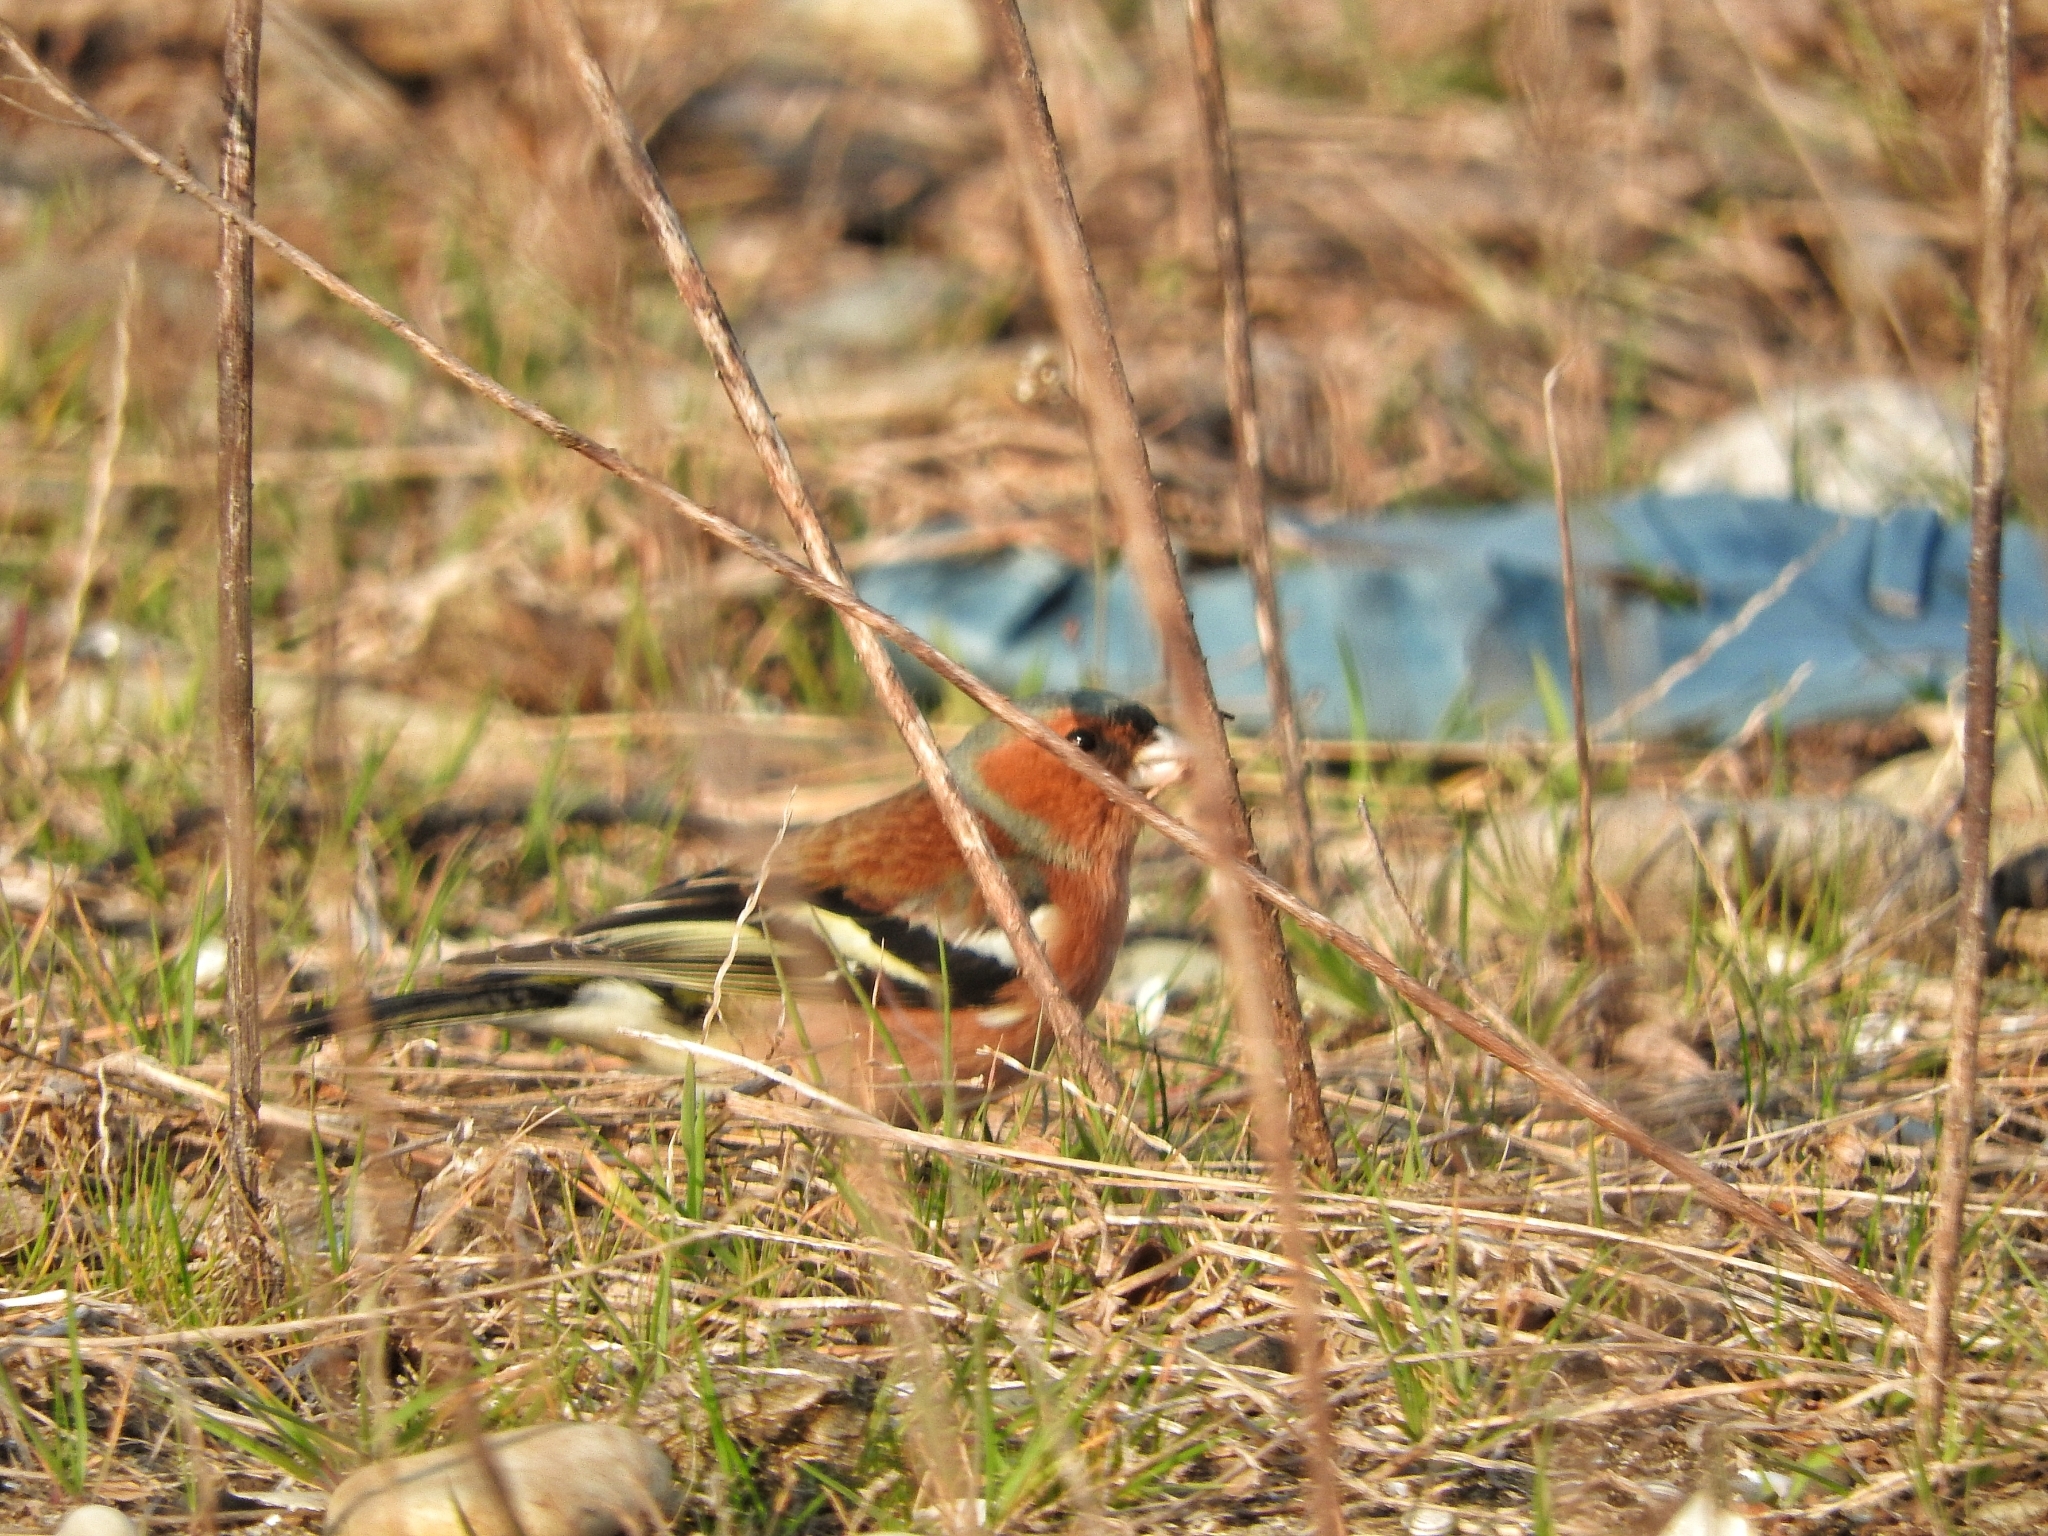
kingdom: Animalia
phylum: Chordata
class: Aves
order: Passeriformes
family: Fringillidae
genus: Fringilla
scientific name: Fringilla coelebs
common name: Common chaffinch
